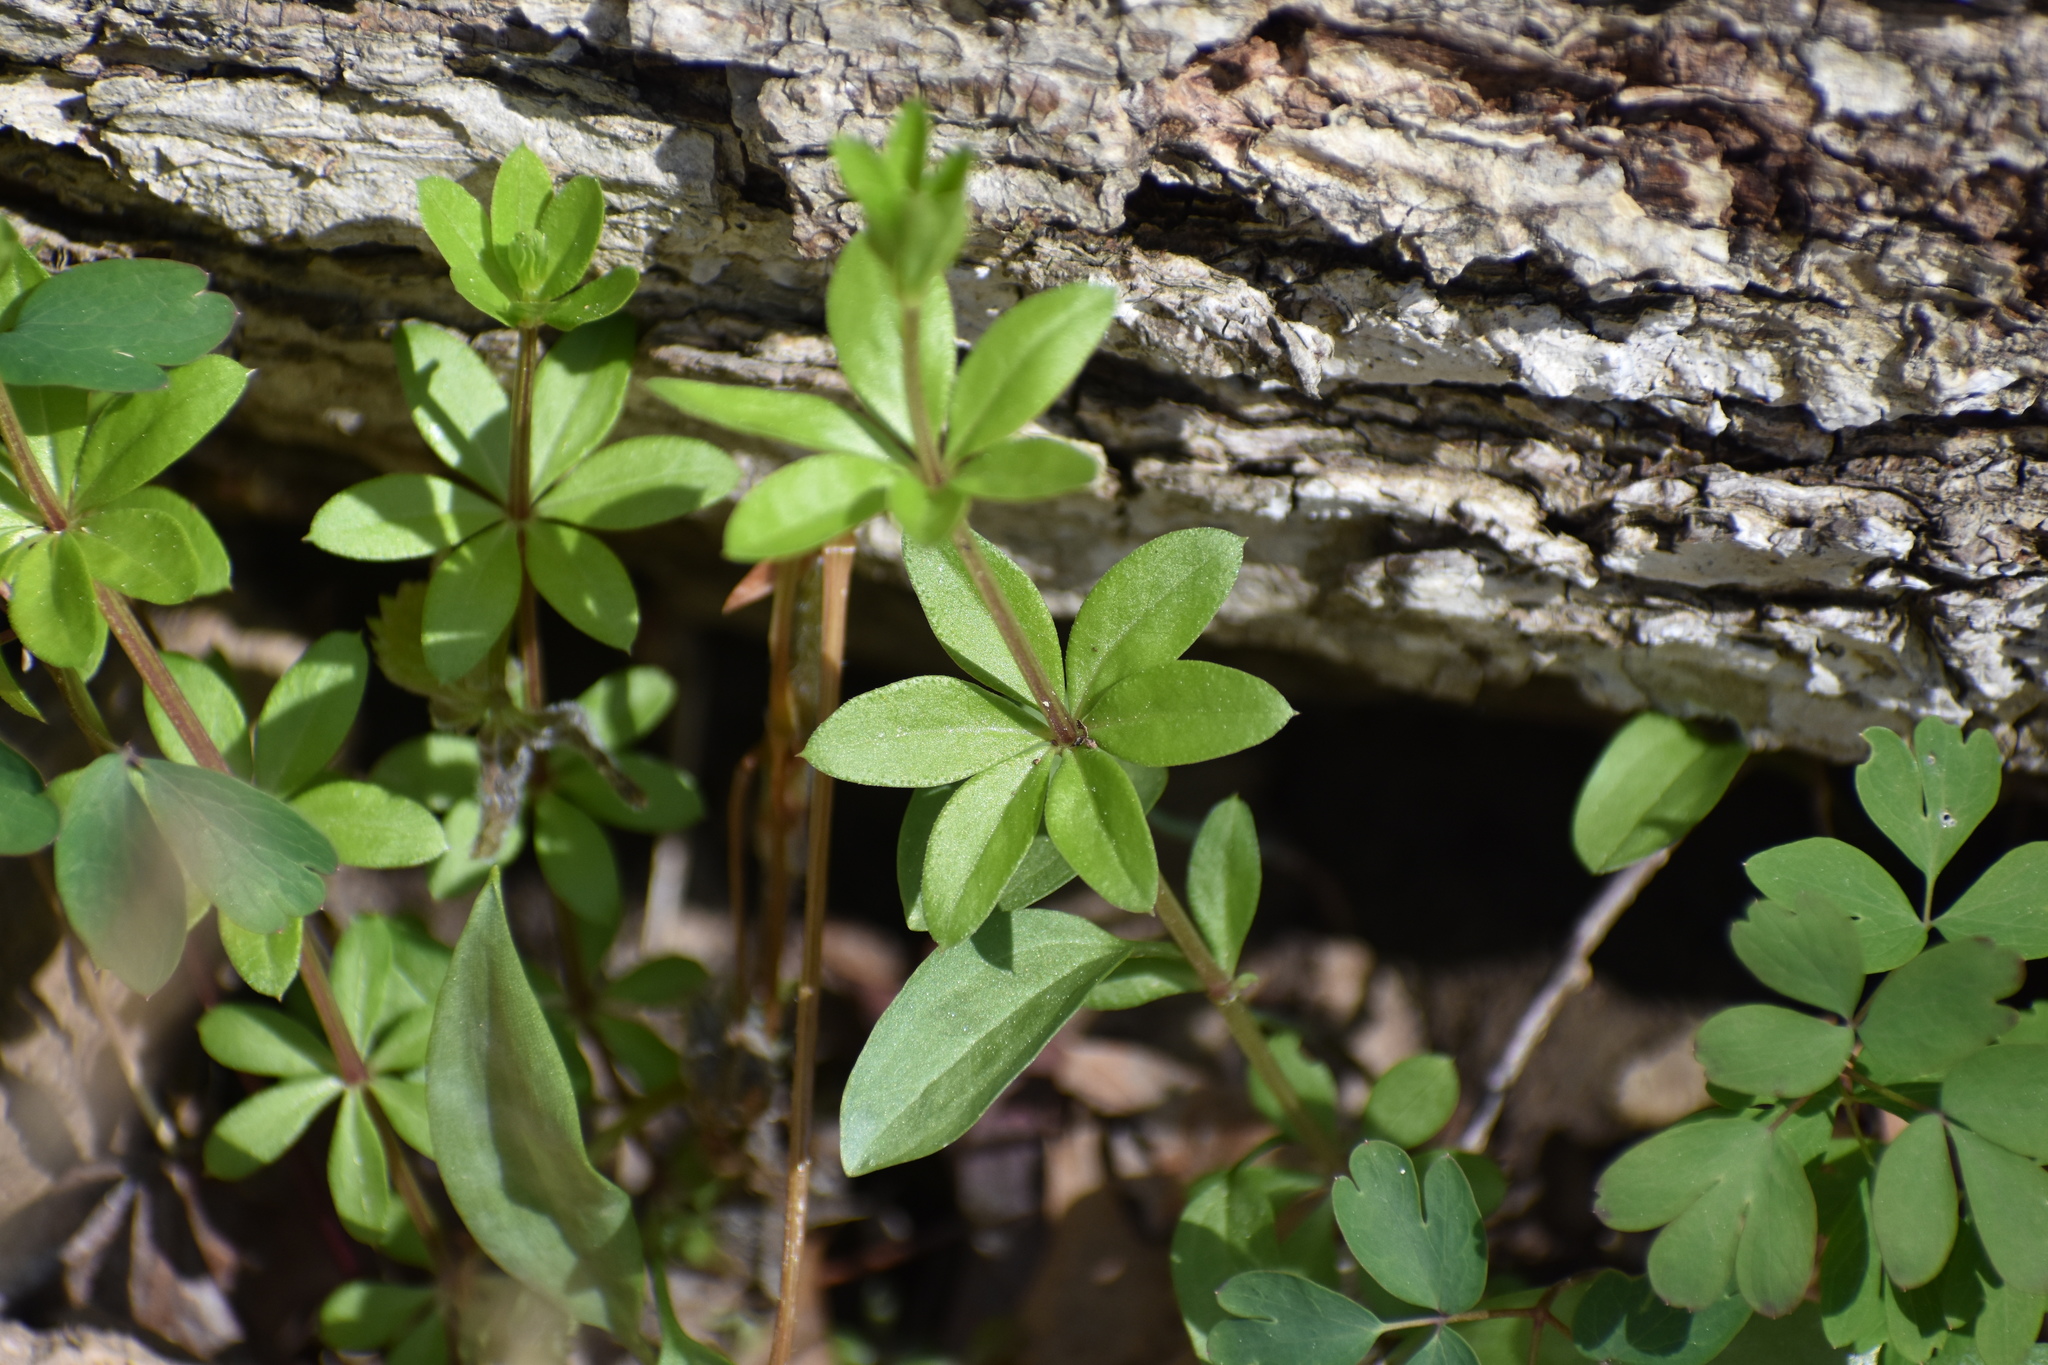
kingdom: Plantae
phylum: Tracheophyta
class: Magnoliopsida
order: Gentianales
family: Rubiaceae
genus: Galium
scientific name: Galium triflorum
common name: Fragrant bedstraw
